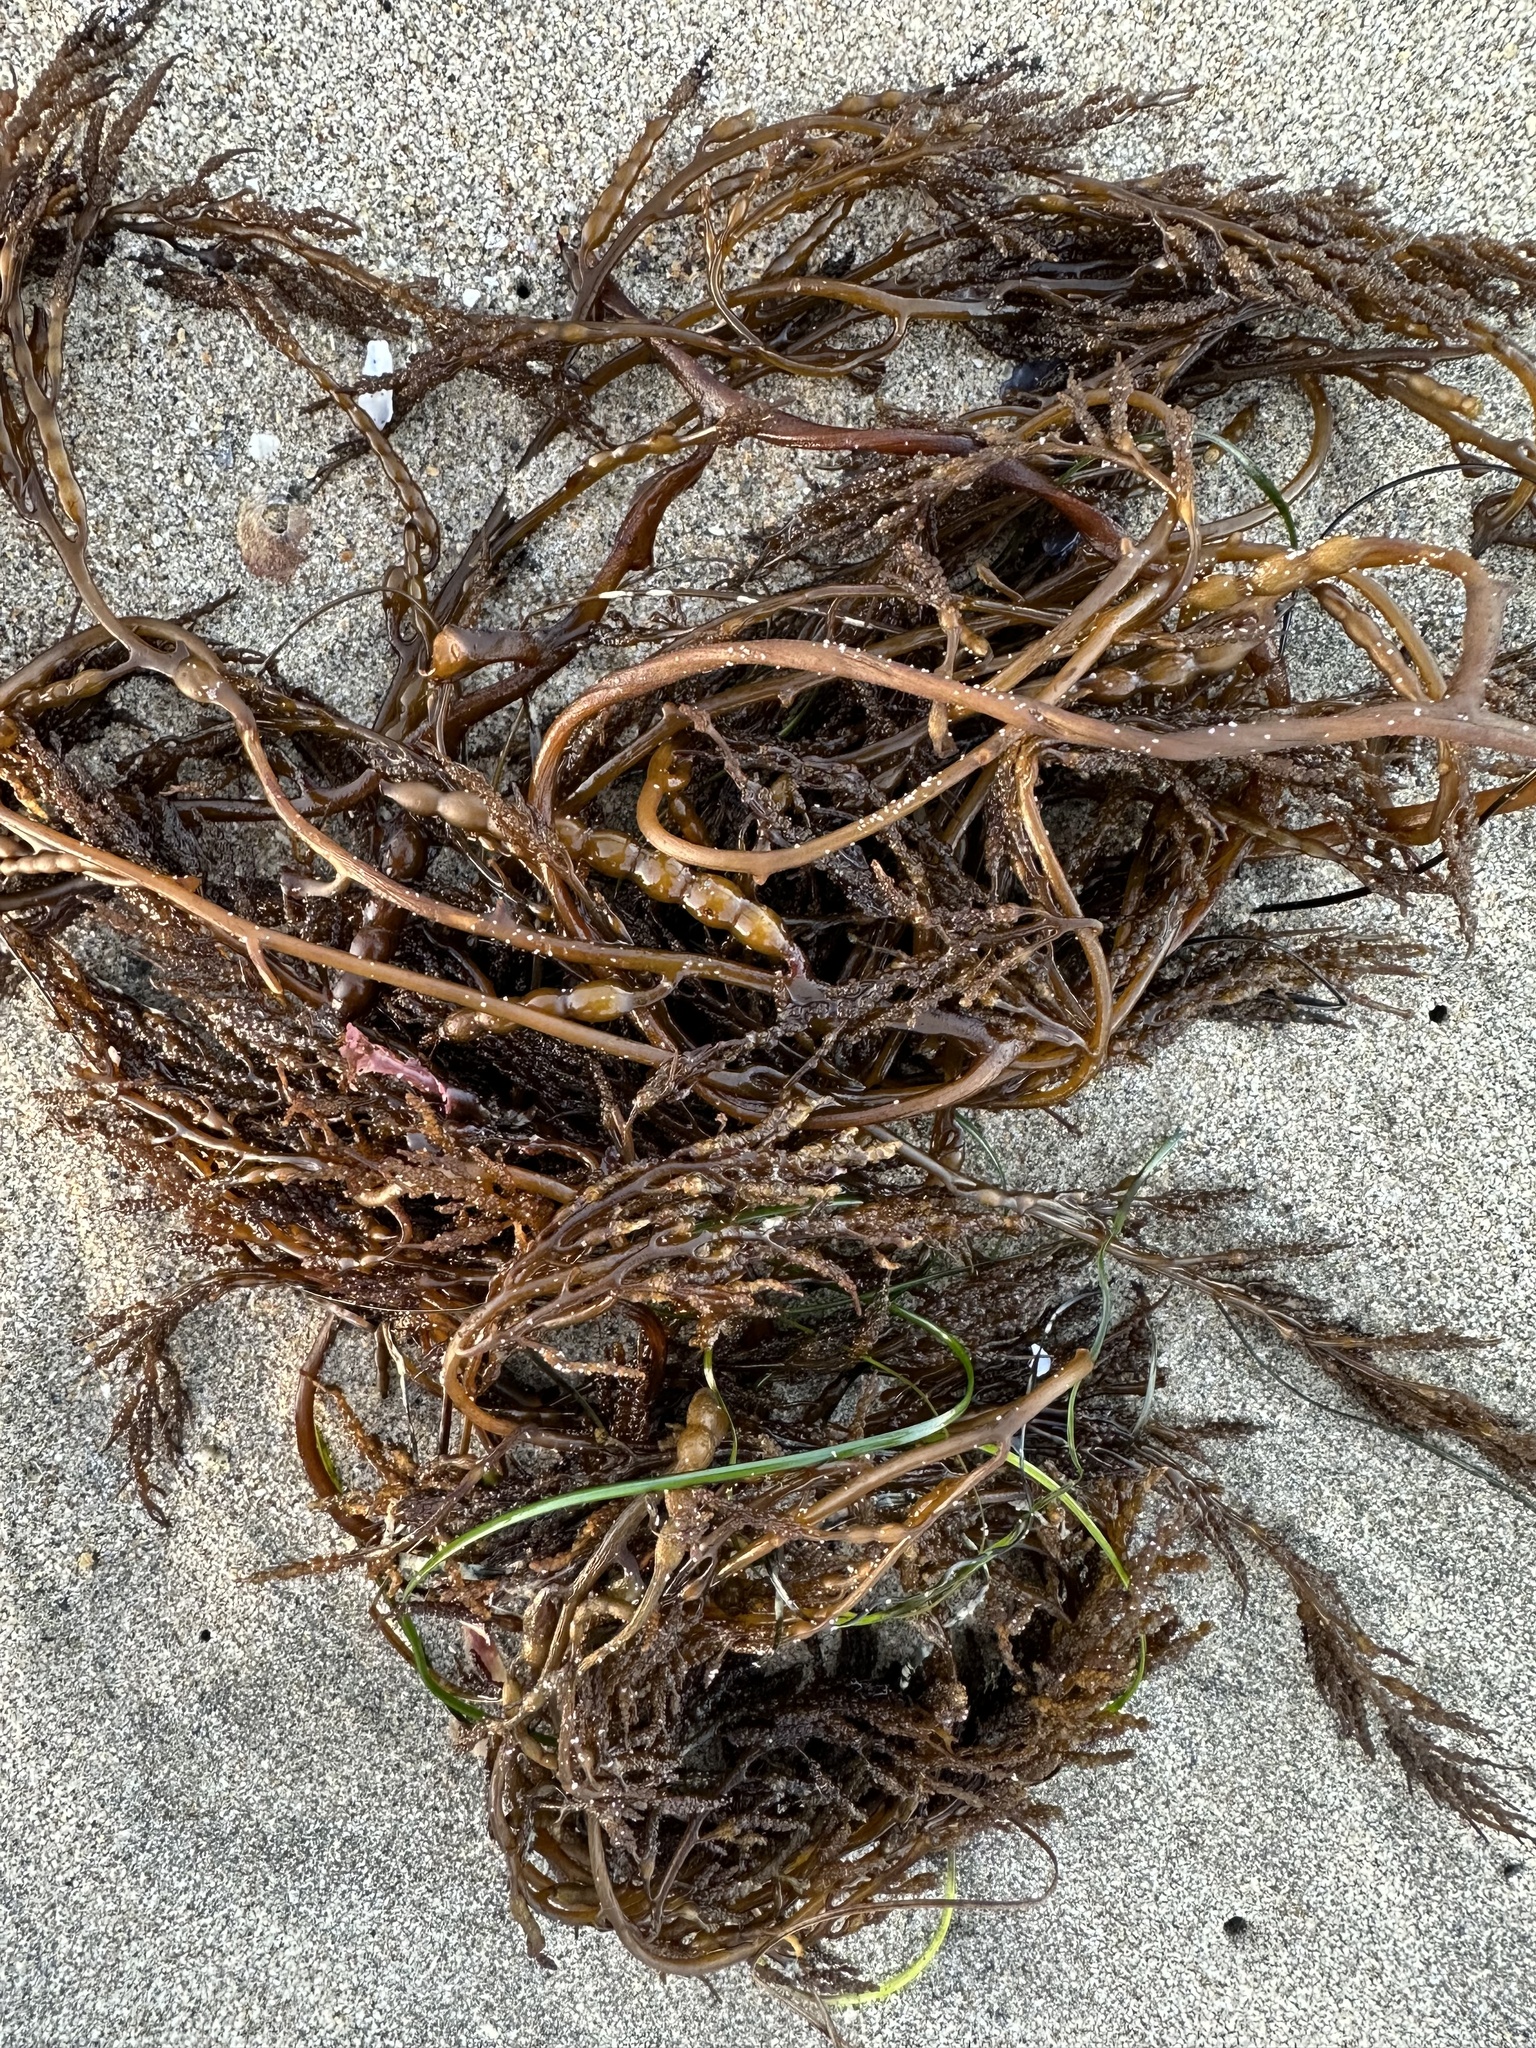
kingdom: Chromista
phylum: Ochrophyta
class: Phaeophyceae
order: Fucales
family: Sargassaceae
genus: Stephanocystis
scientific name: Stephanocystis
